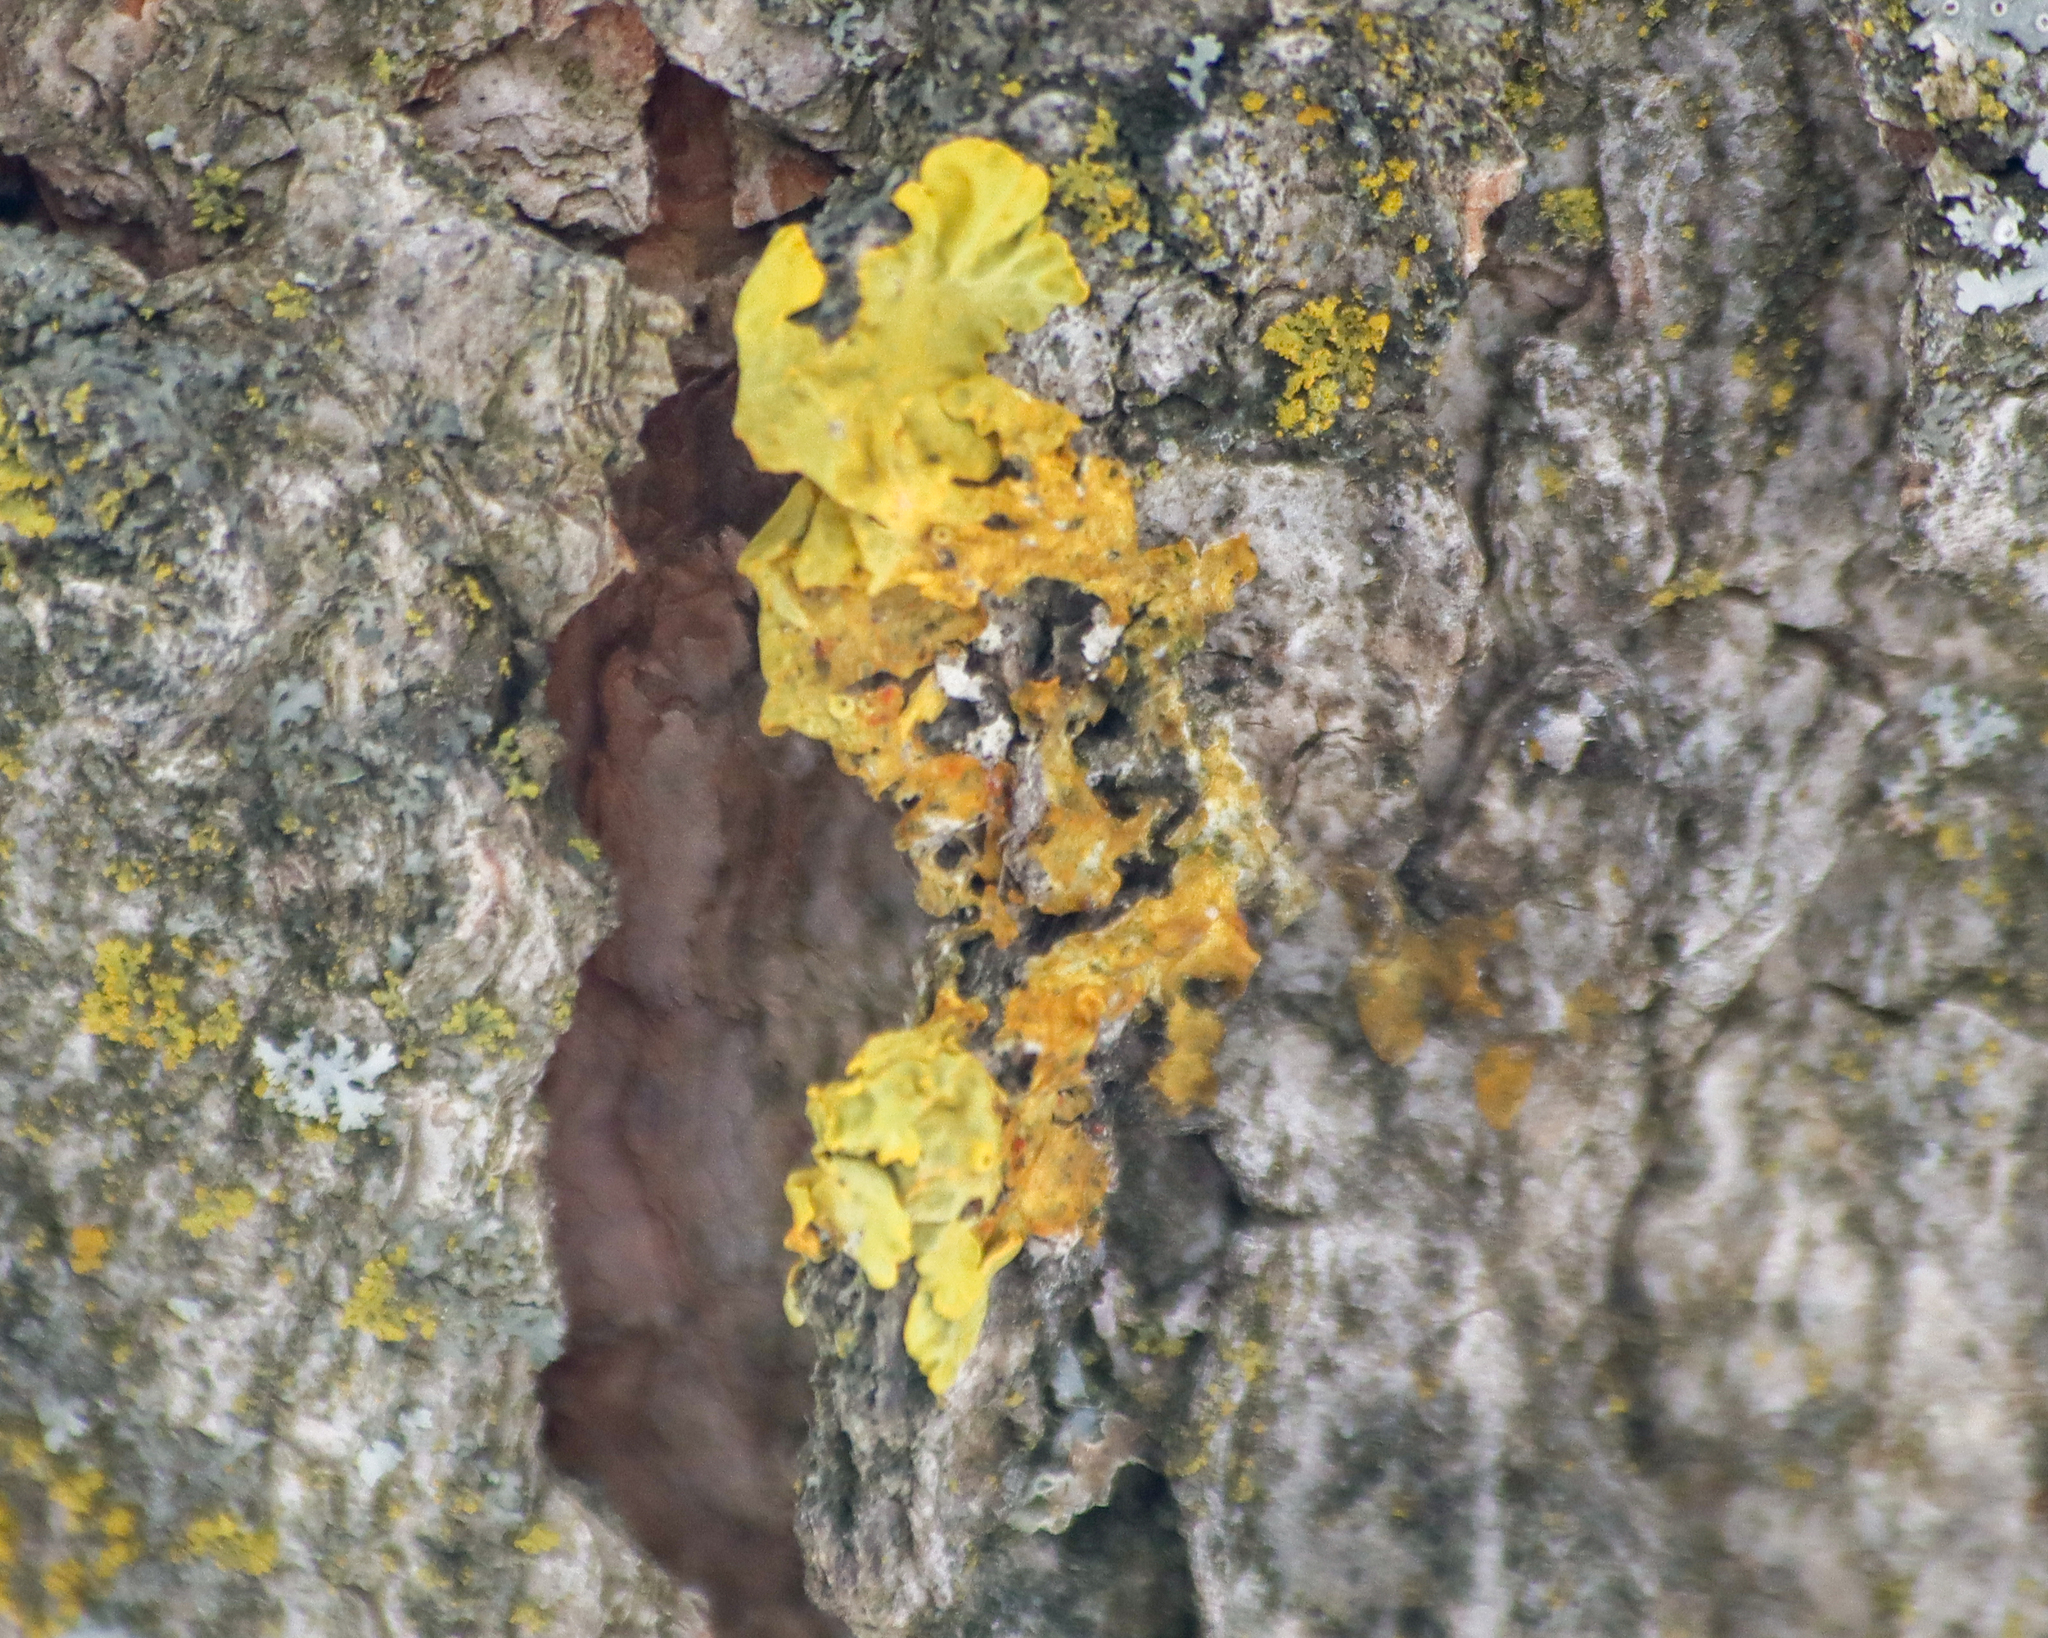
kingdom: Fungi
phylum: Ascomycota
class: Lecanoromycetes
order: Teloschistales
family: Teloschistaceae
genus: Xanthoria
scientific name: Xanthoria parietina
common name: Common orange lichen
